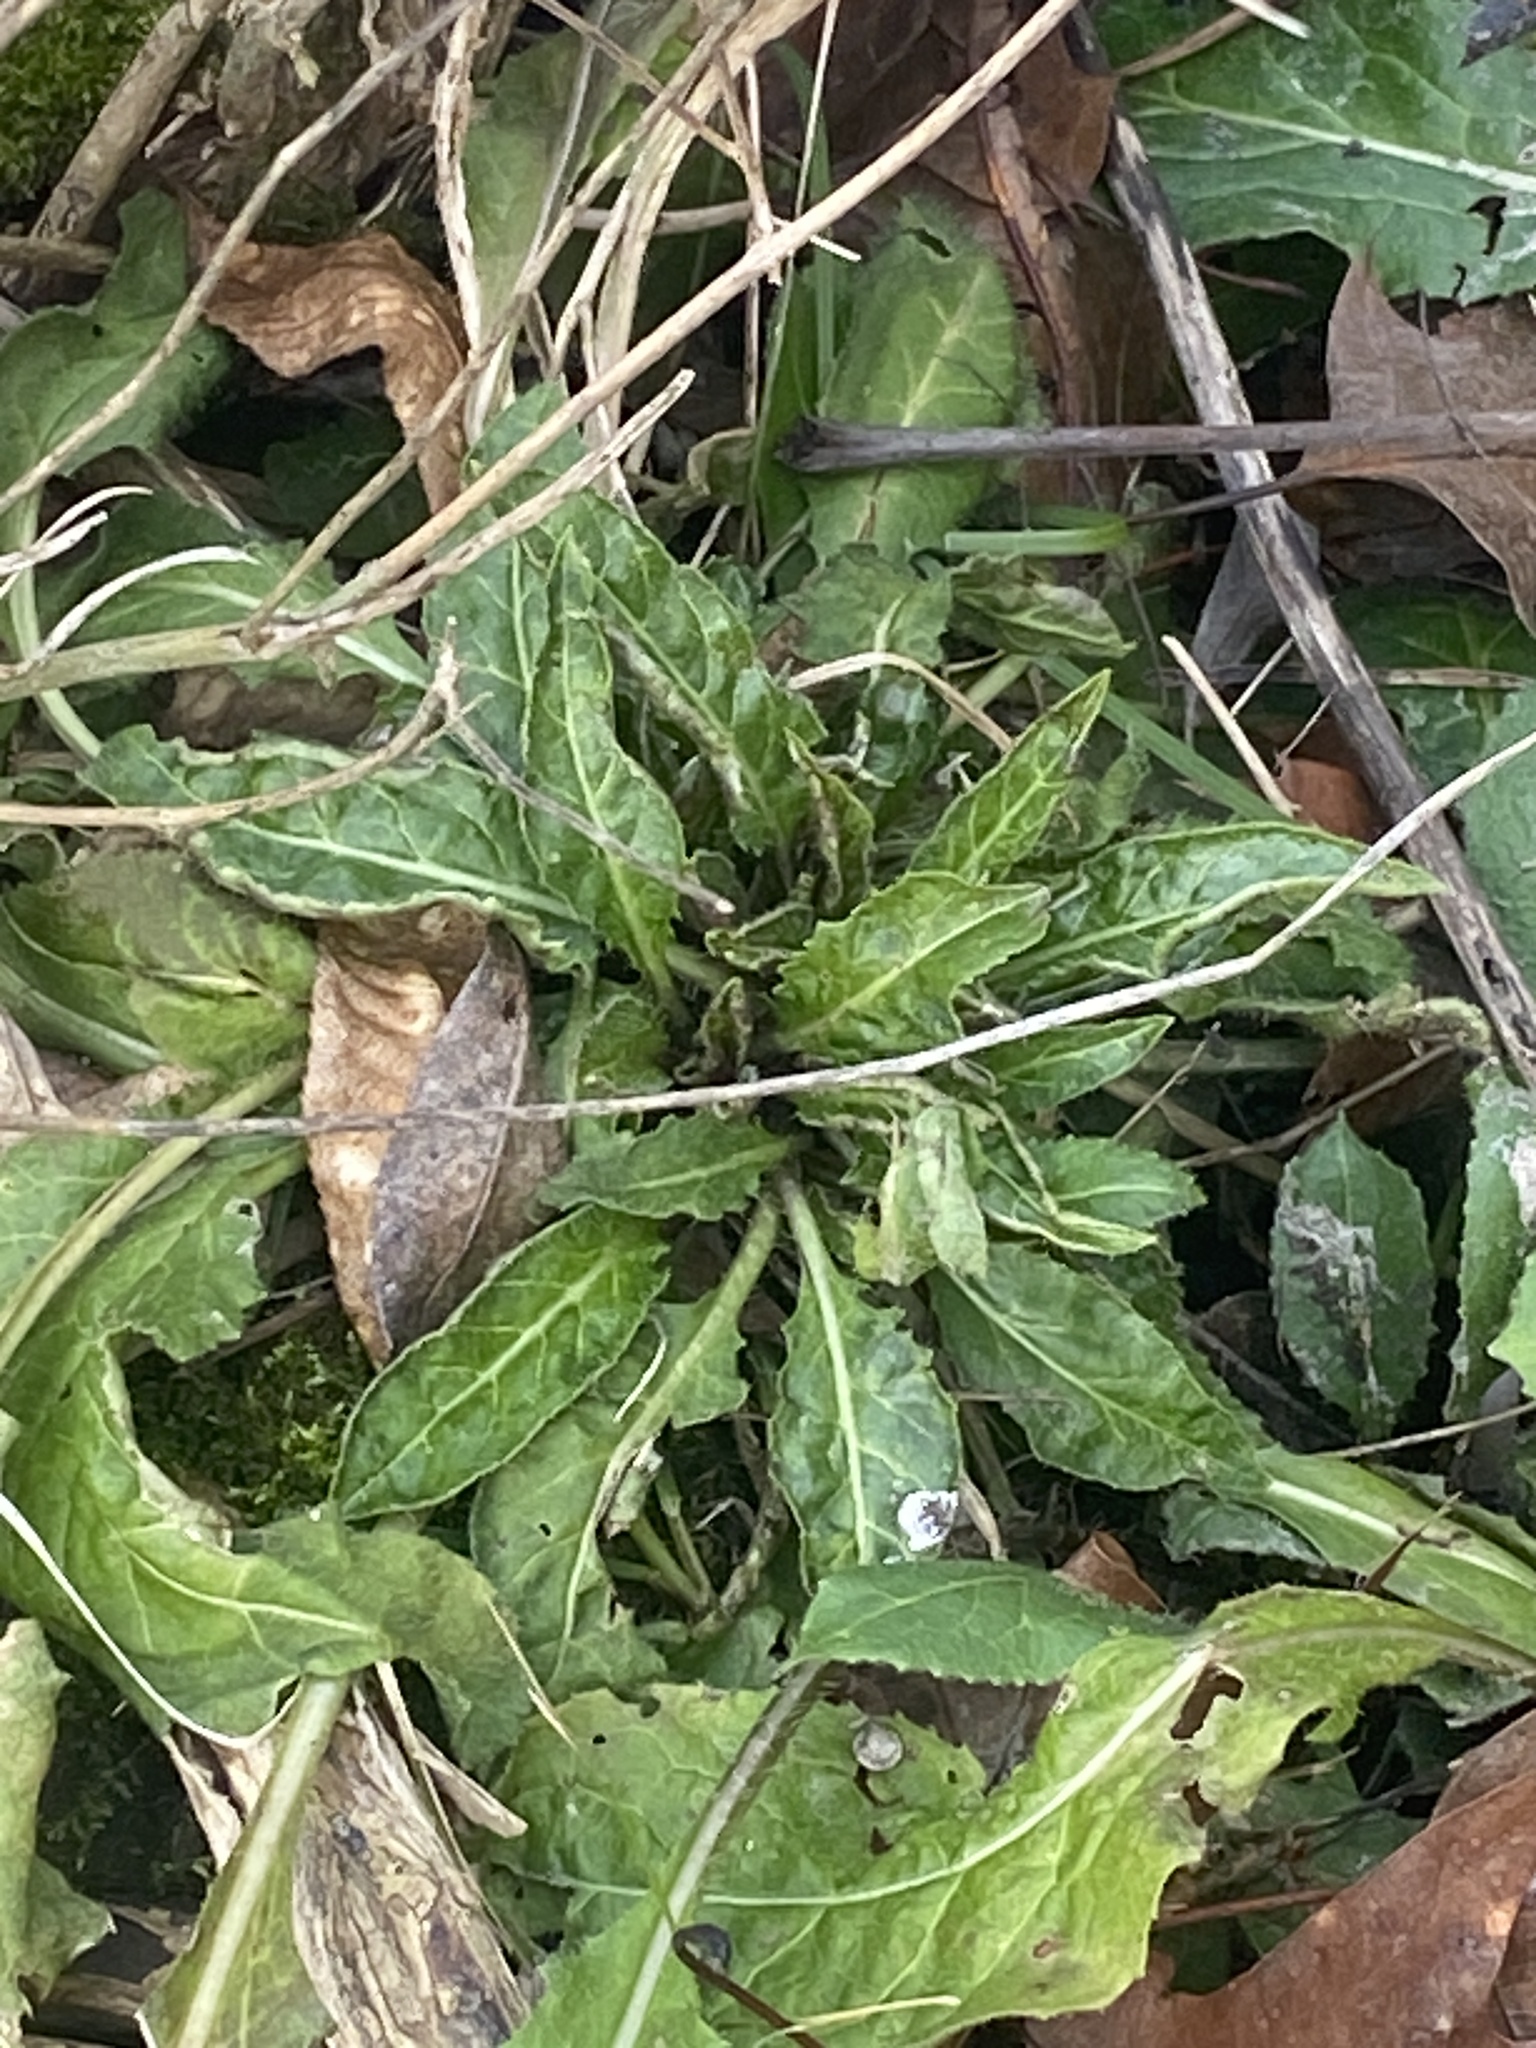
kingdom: Plantae
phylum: Tracheophyta
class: Magnoliopsida
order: Brassicales
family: Brassicaceae
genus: Hesperis
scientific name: Hesperis matronalis
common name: Dame's-violet
